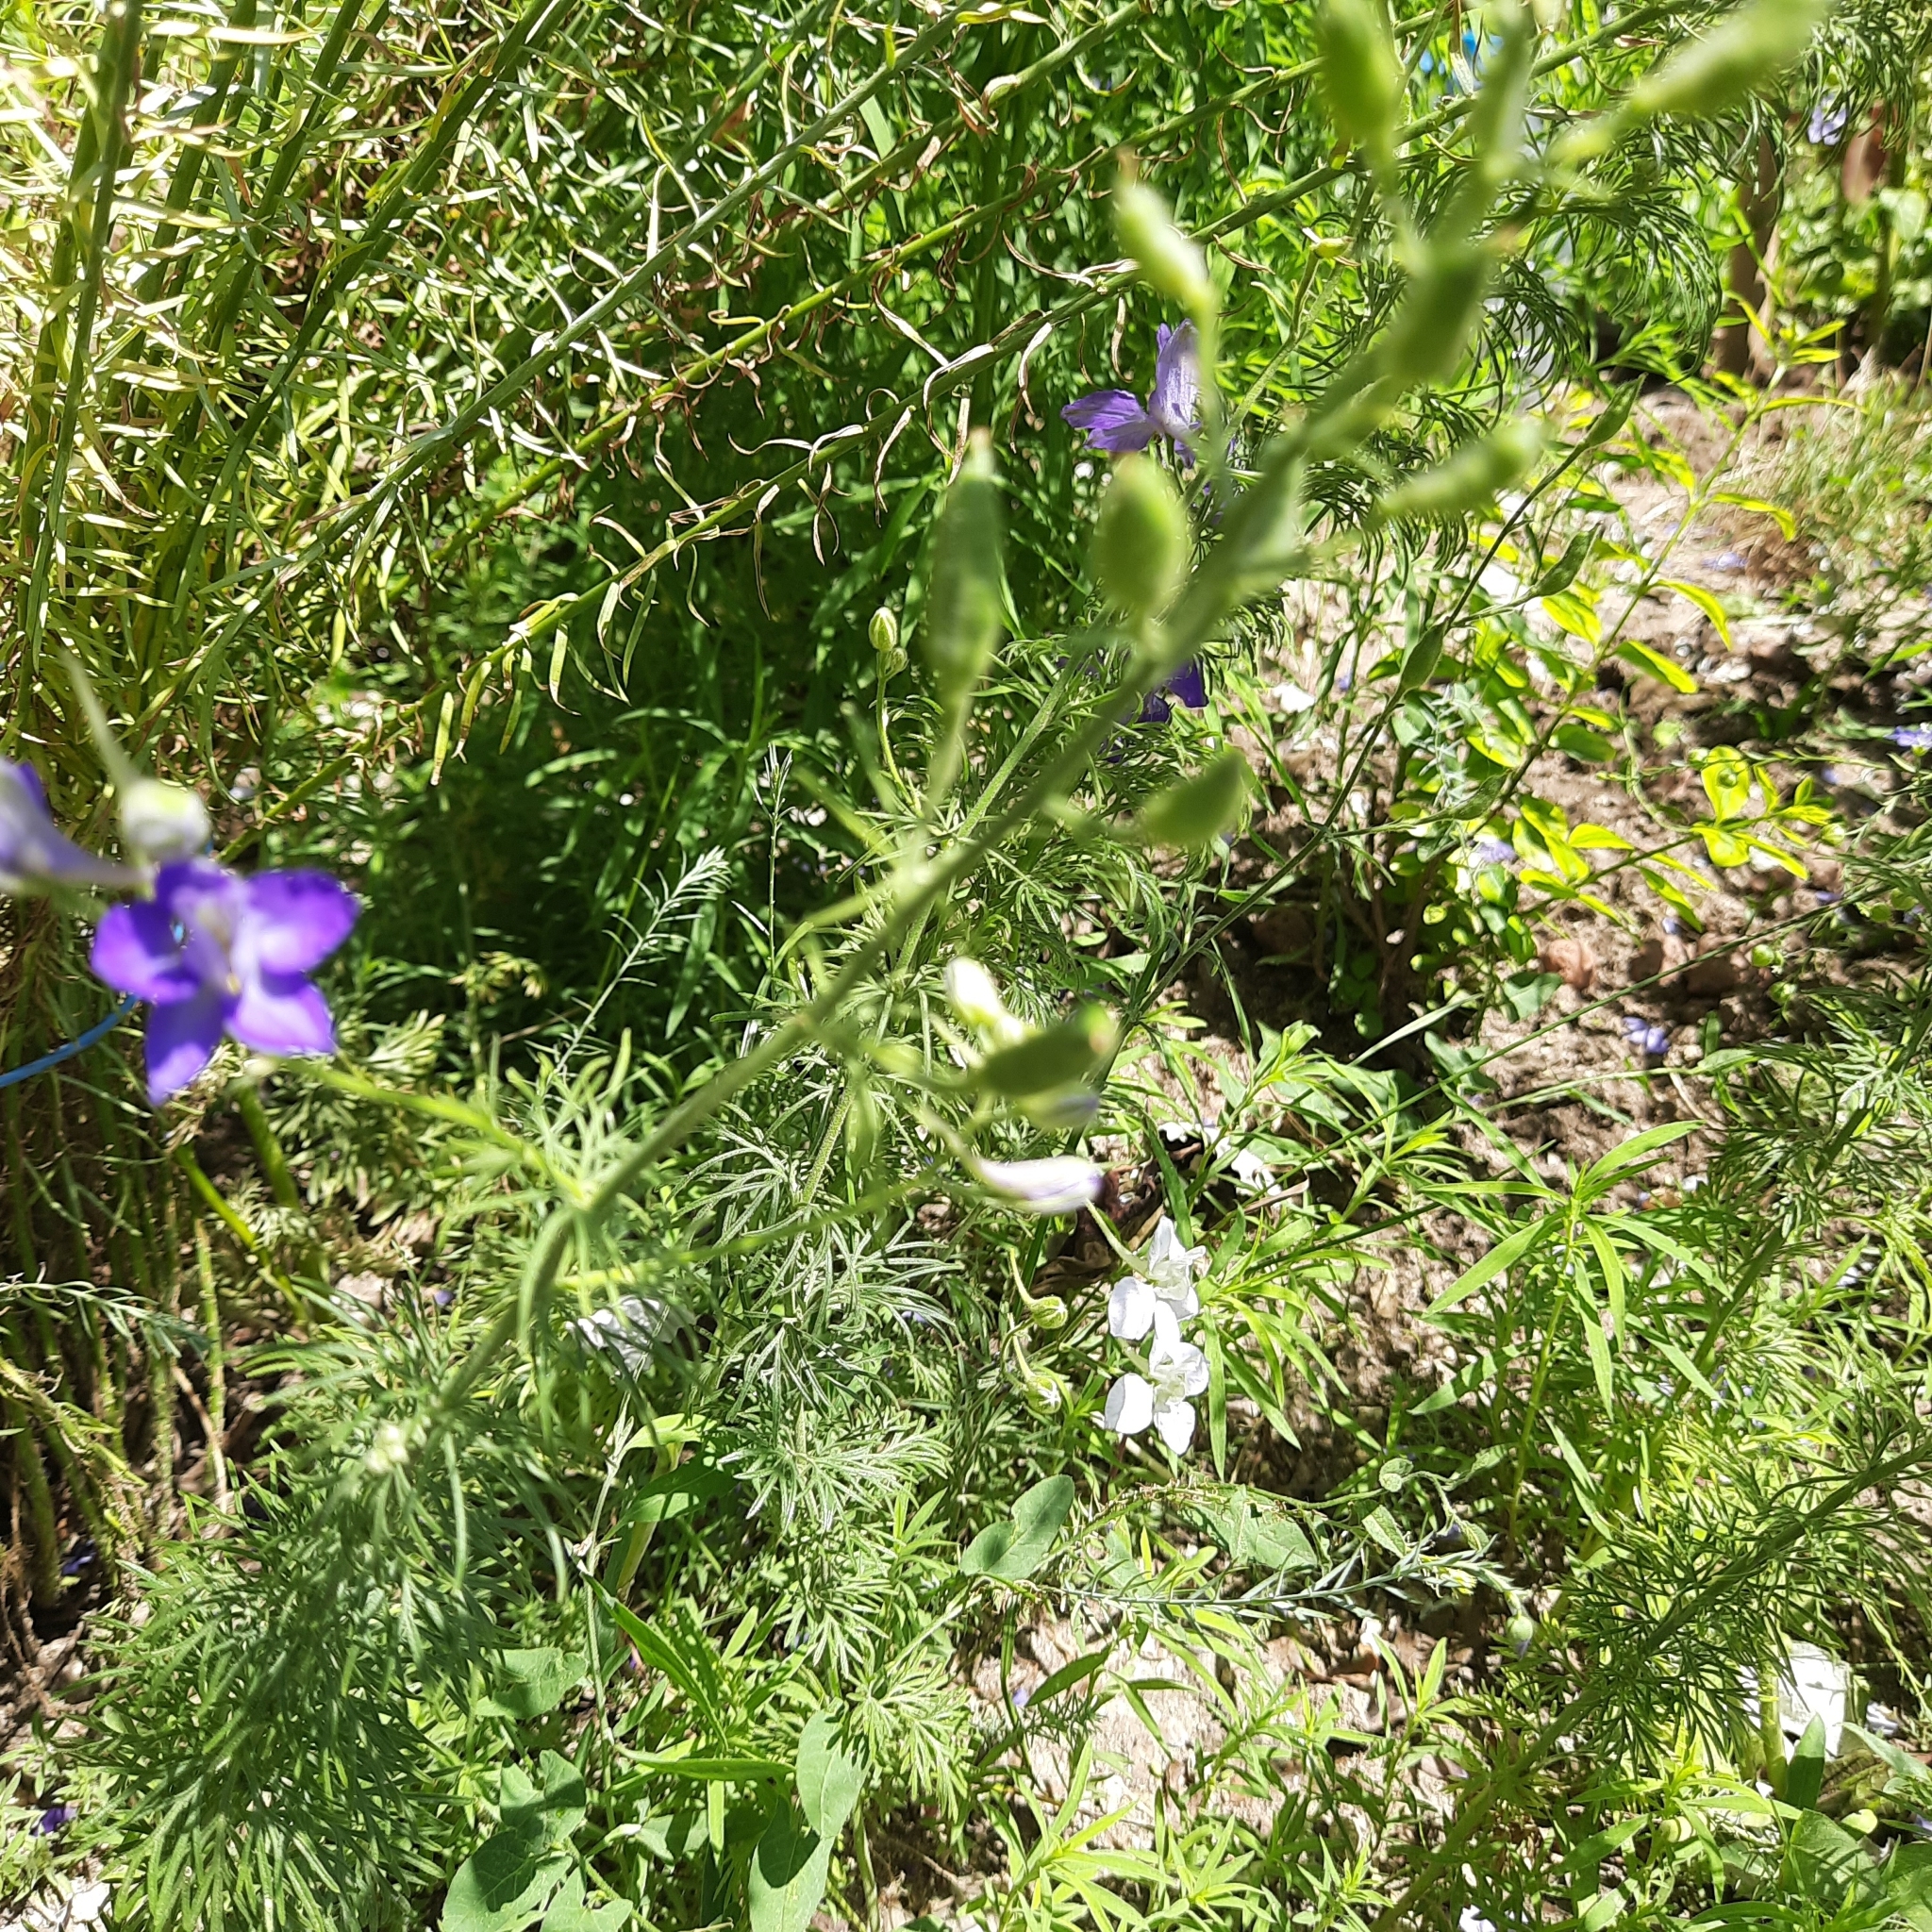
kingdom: Plantae
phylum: Tracheophyta
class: Magnoliopsida
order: Ranunculales
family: Ranunculaceae
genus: Delphinium
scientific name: Delphinium ajacis
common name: Doubtful knight's-spur
